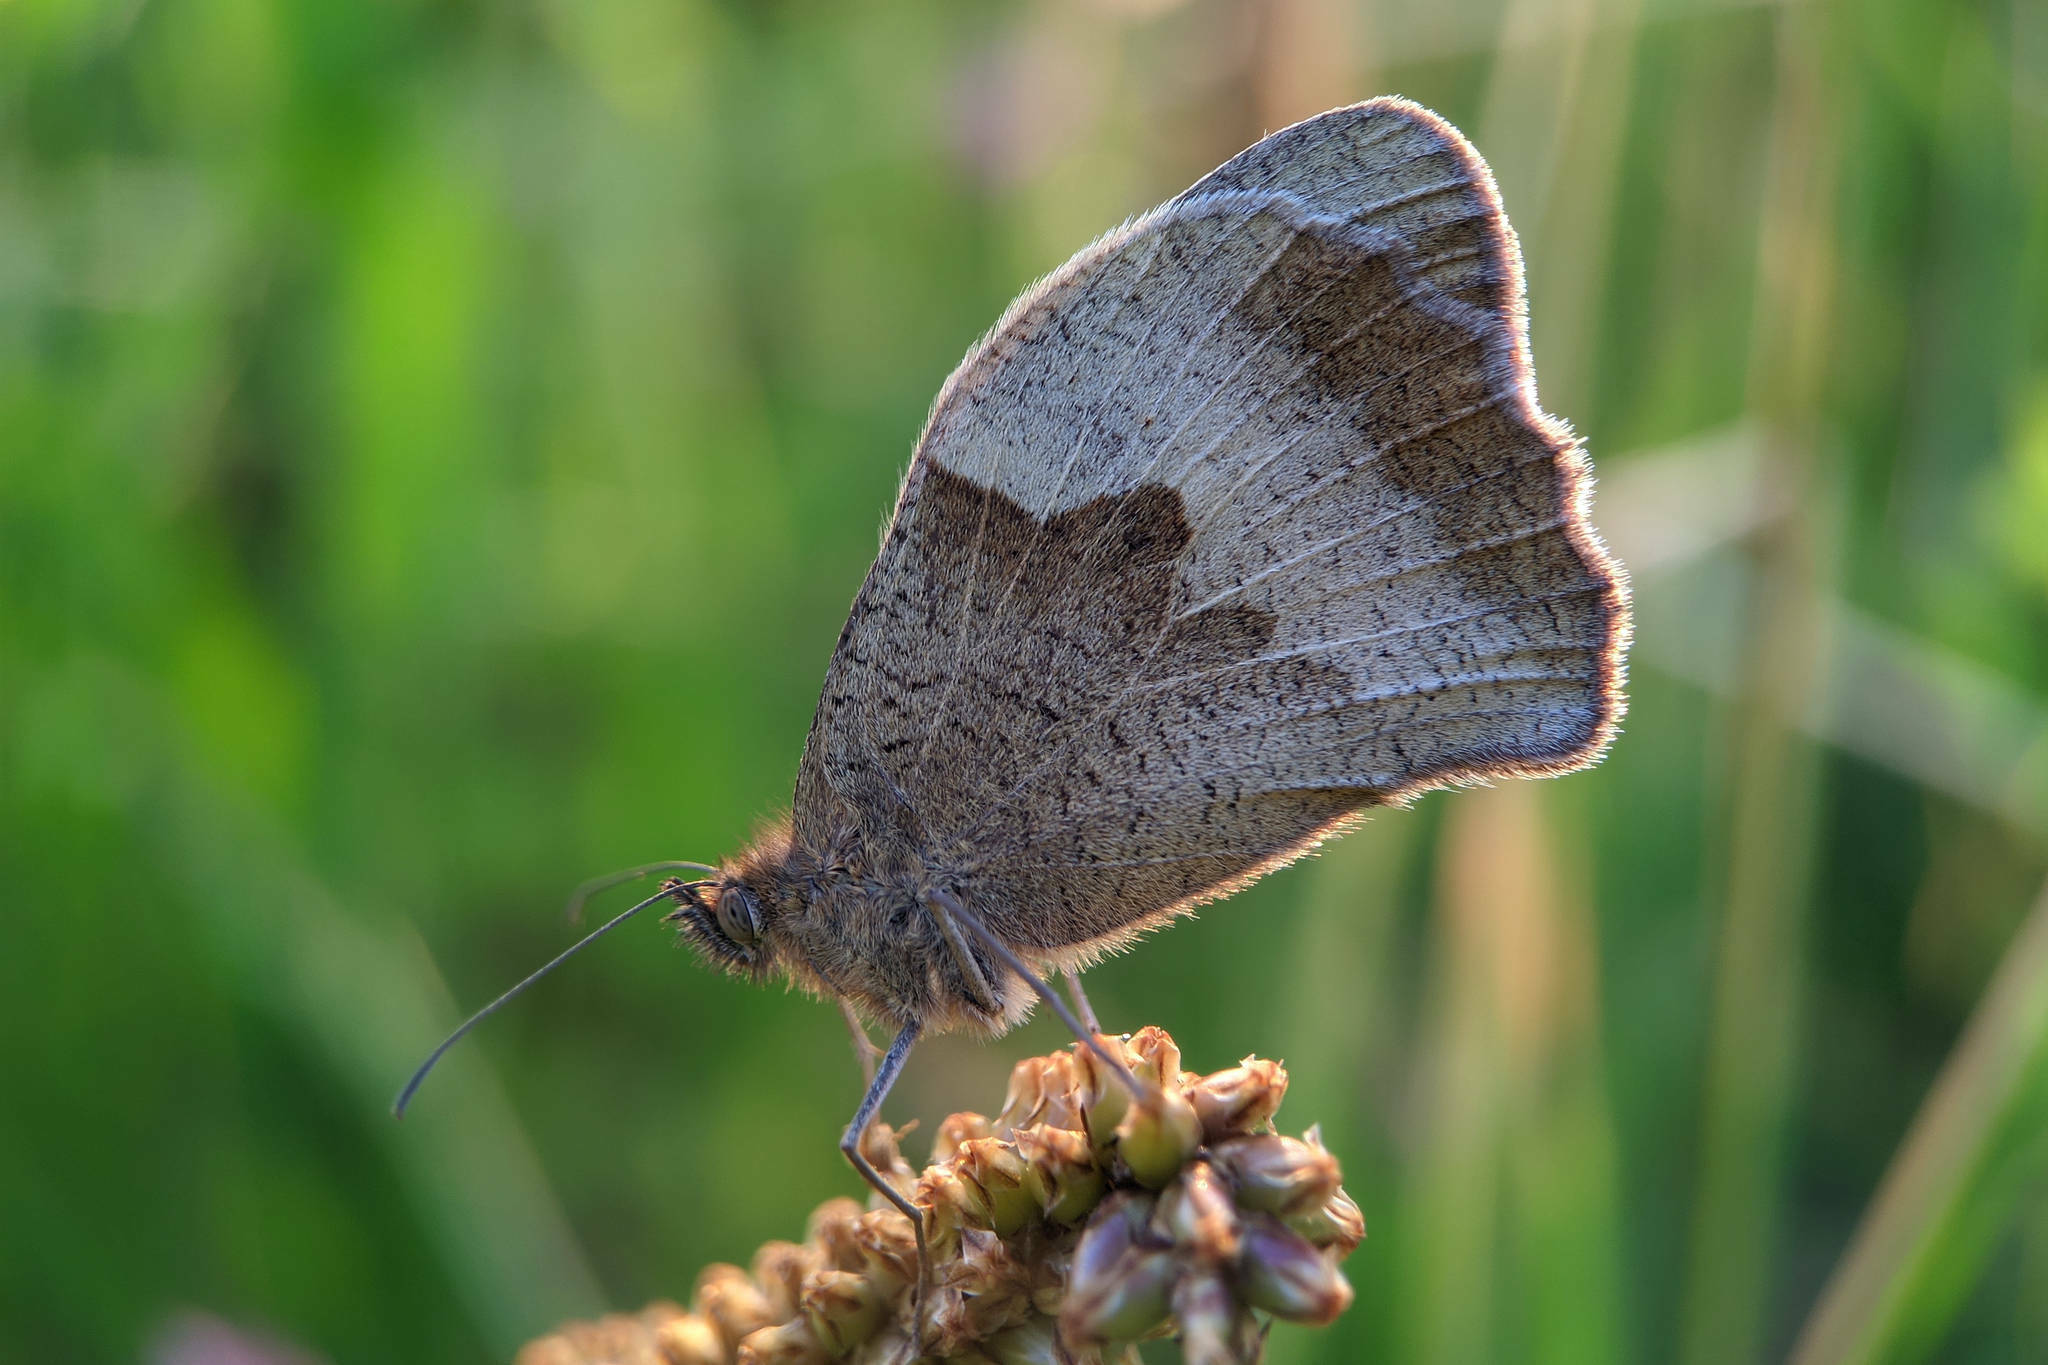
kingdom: Animalia
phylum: Arthropoda
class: Insecta
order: Lepidoptera
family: Nymphalidae
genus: Maniola
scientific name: Maniola jurtina
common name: Meadow brown
